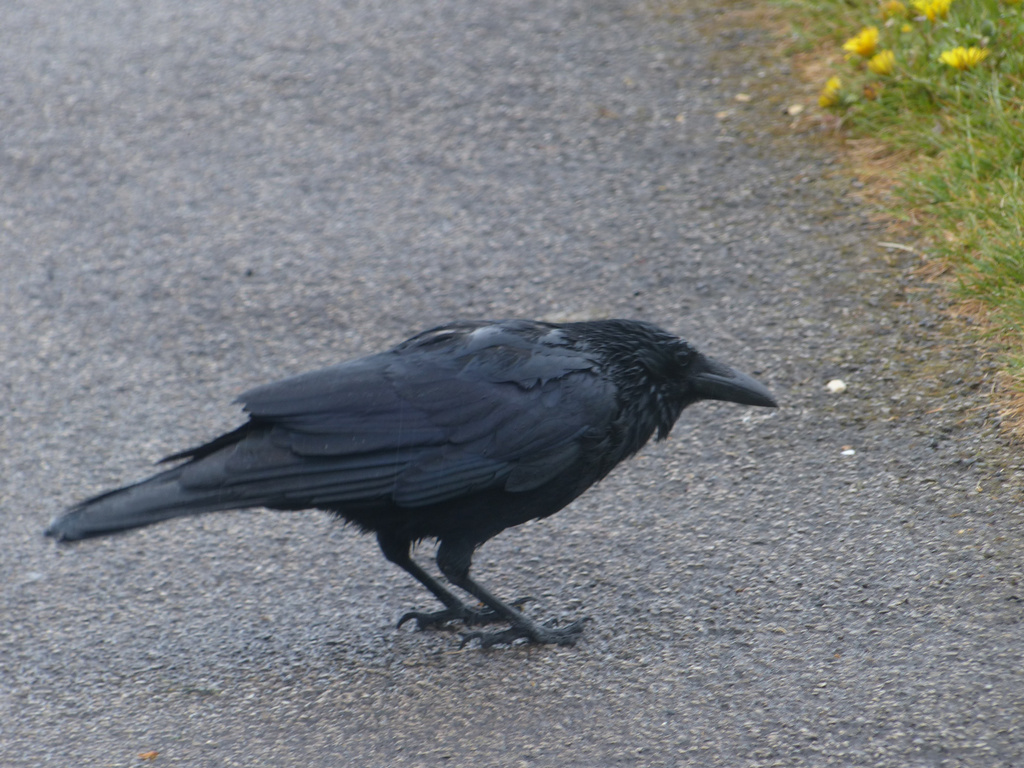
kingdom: Animalia
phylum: Chordata
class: Aves
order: Passeriformes
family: Corvidae
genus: Corvus
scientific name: Corvus corone
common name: Carrion crow
